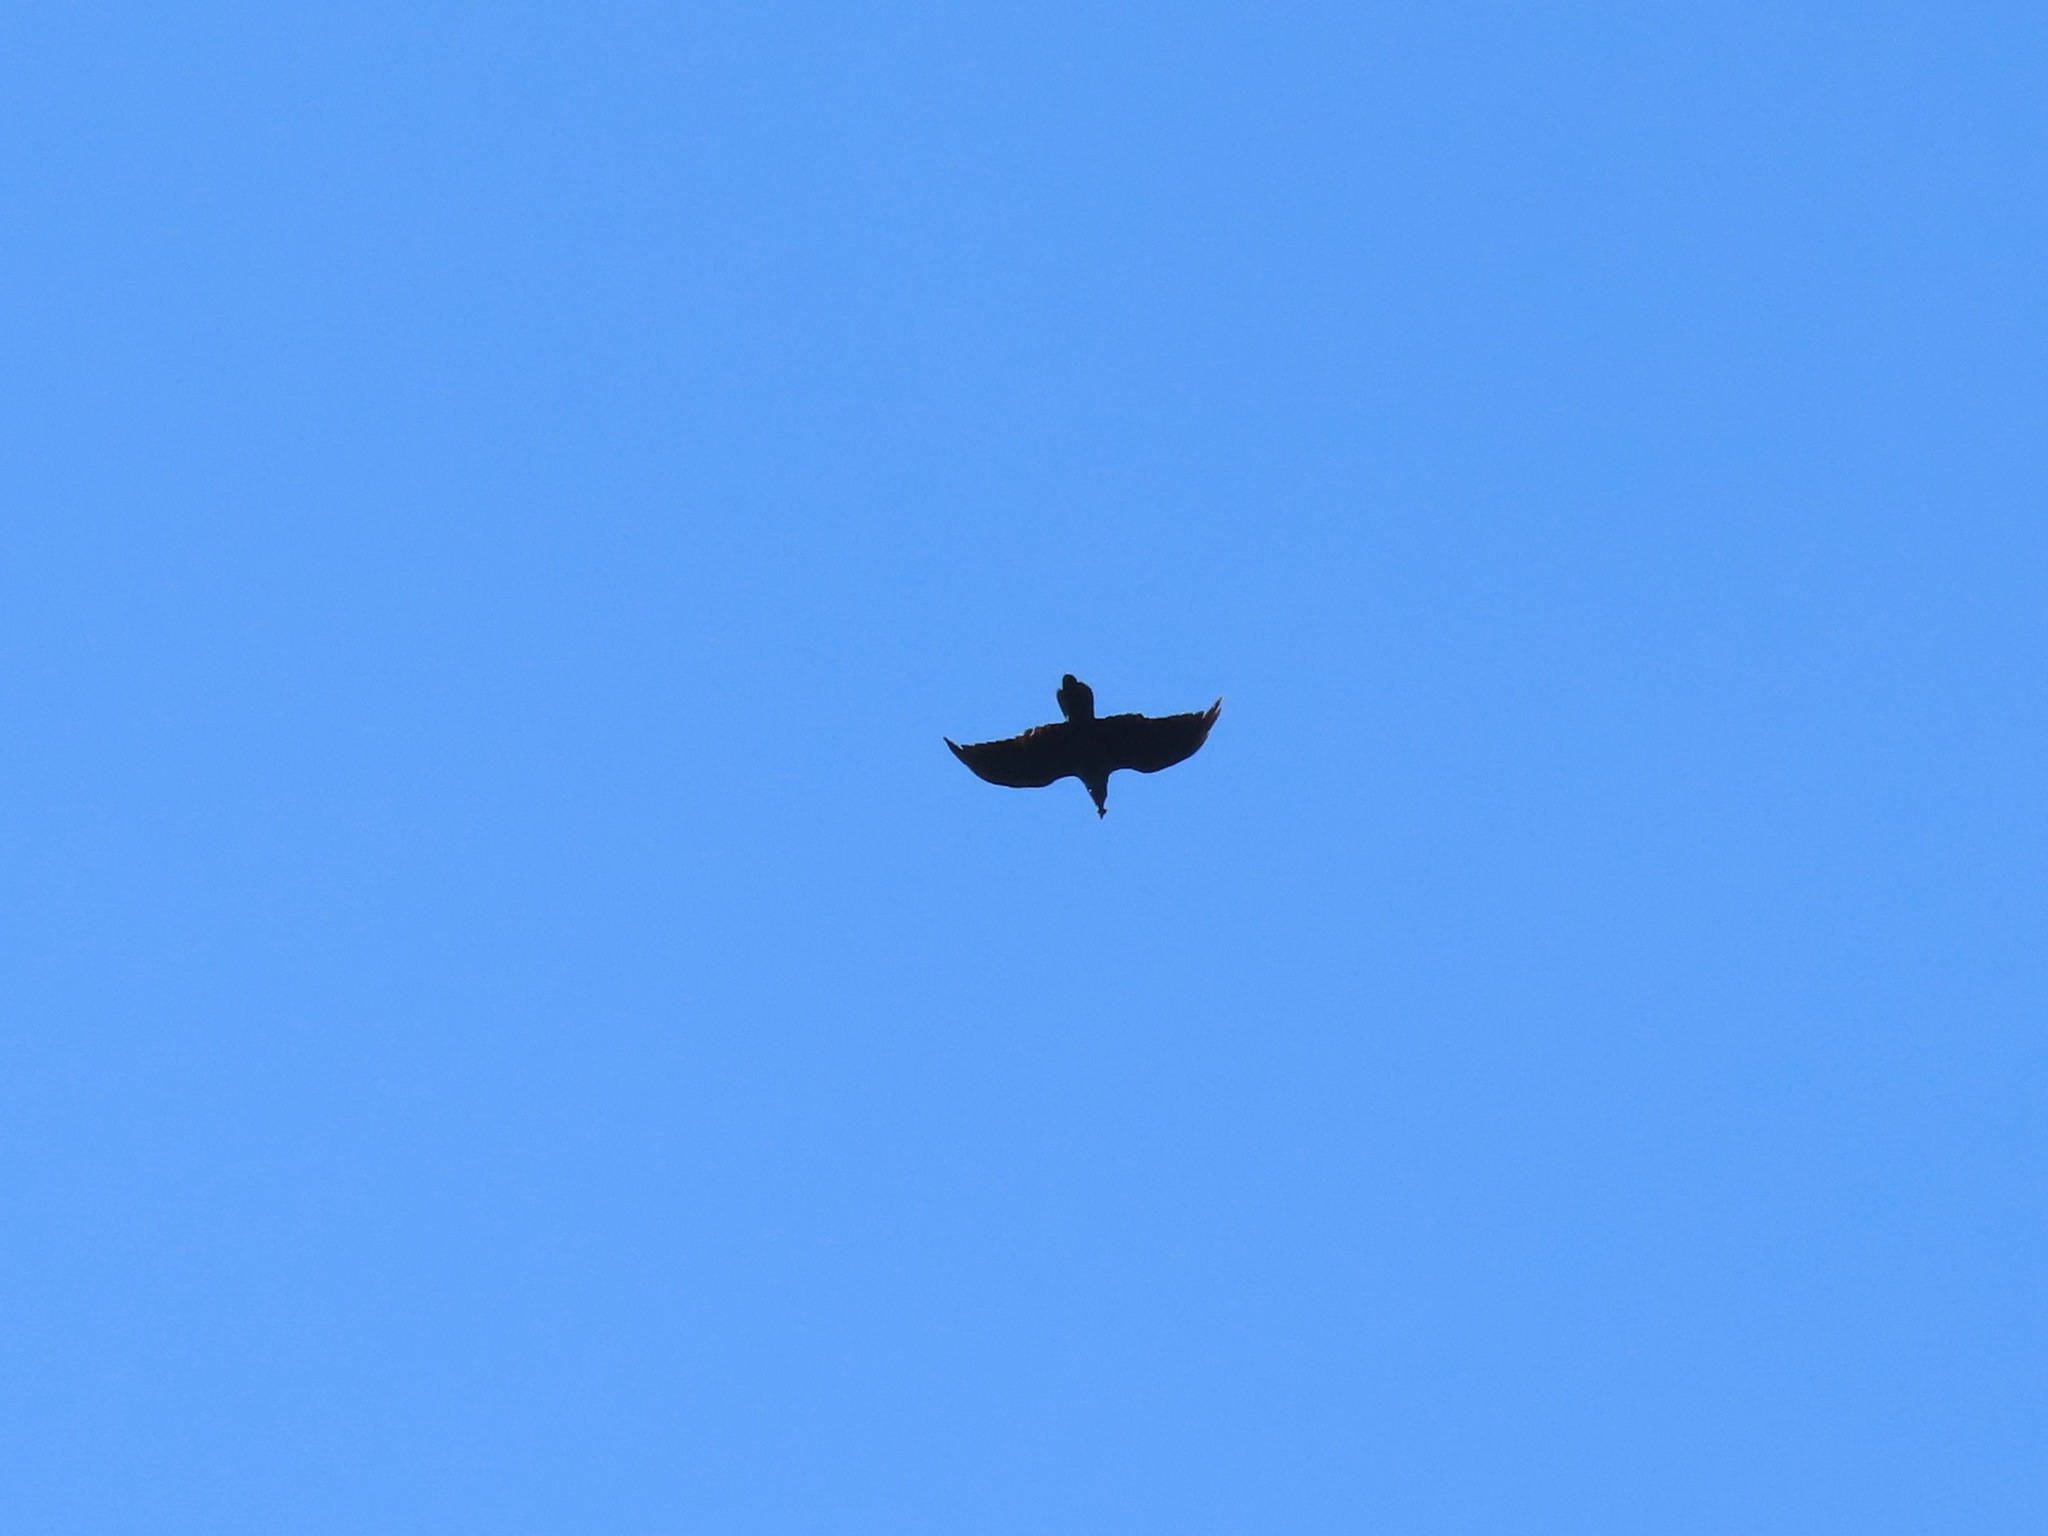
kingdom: Animalia
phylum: Chordata
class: Aves
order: Passeriformes
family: Corvidae
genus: Corvus
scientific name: Corvus corax
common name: Common raven
